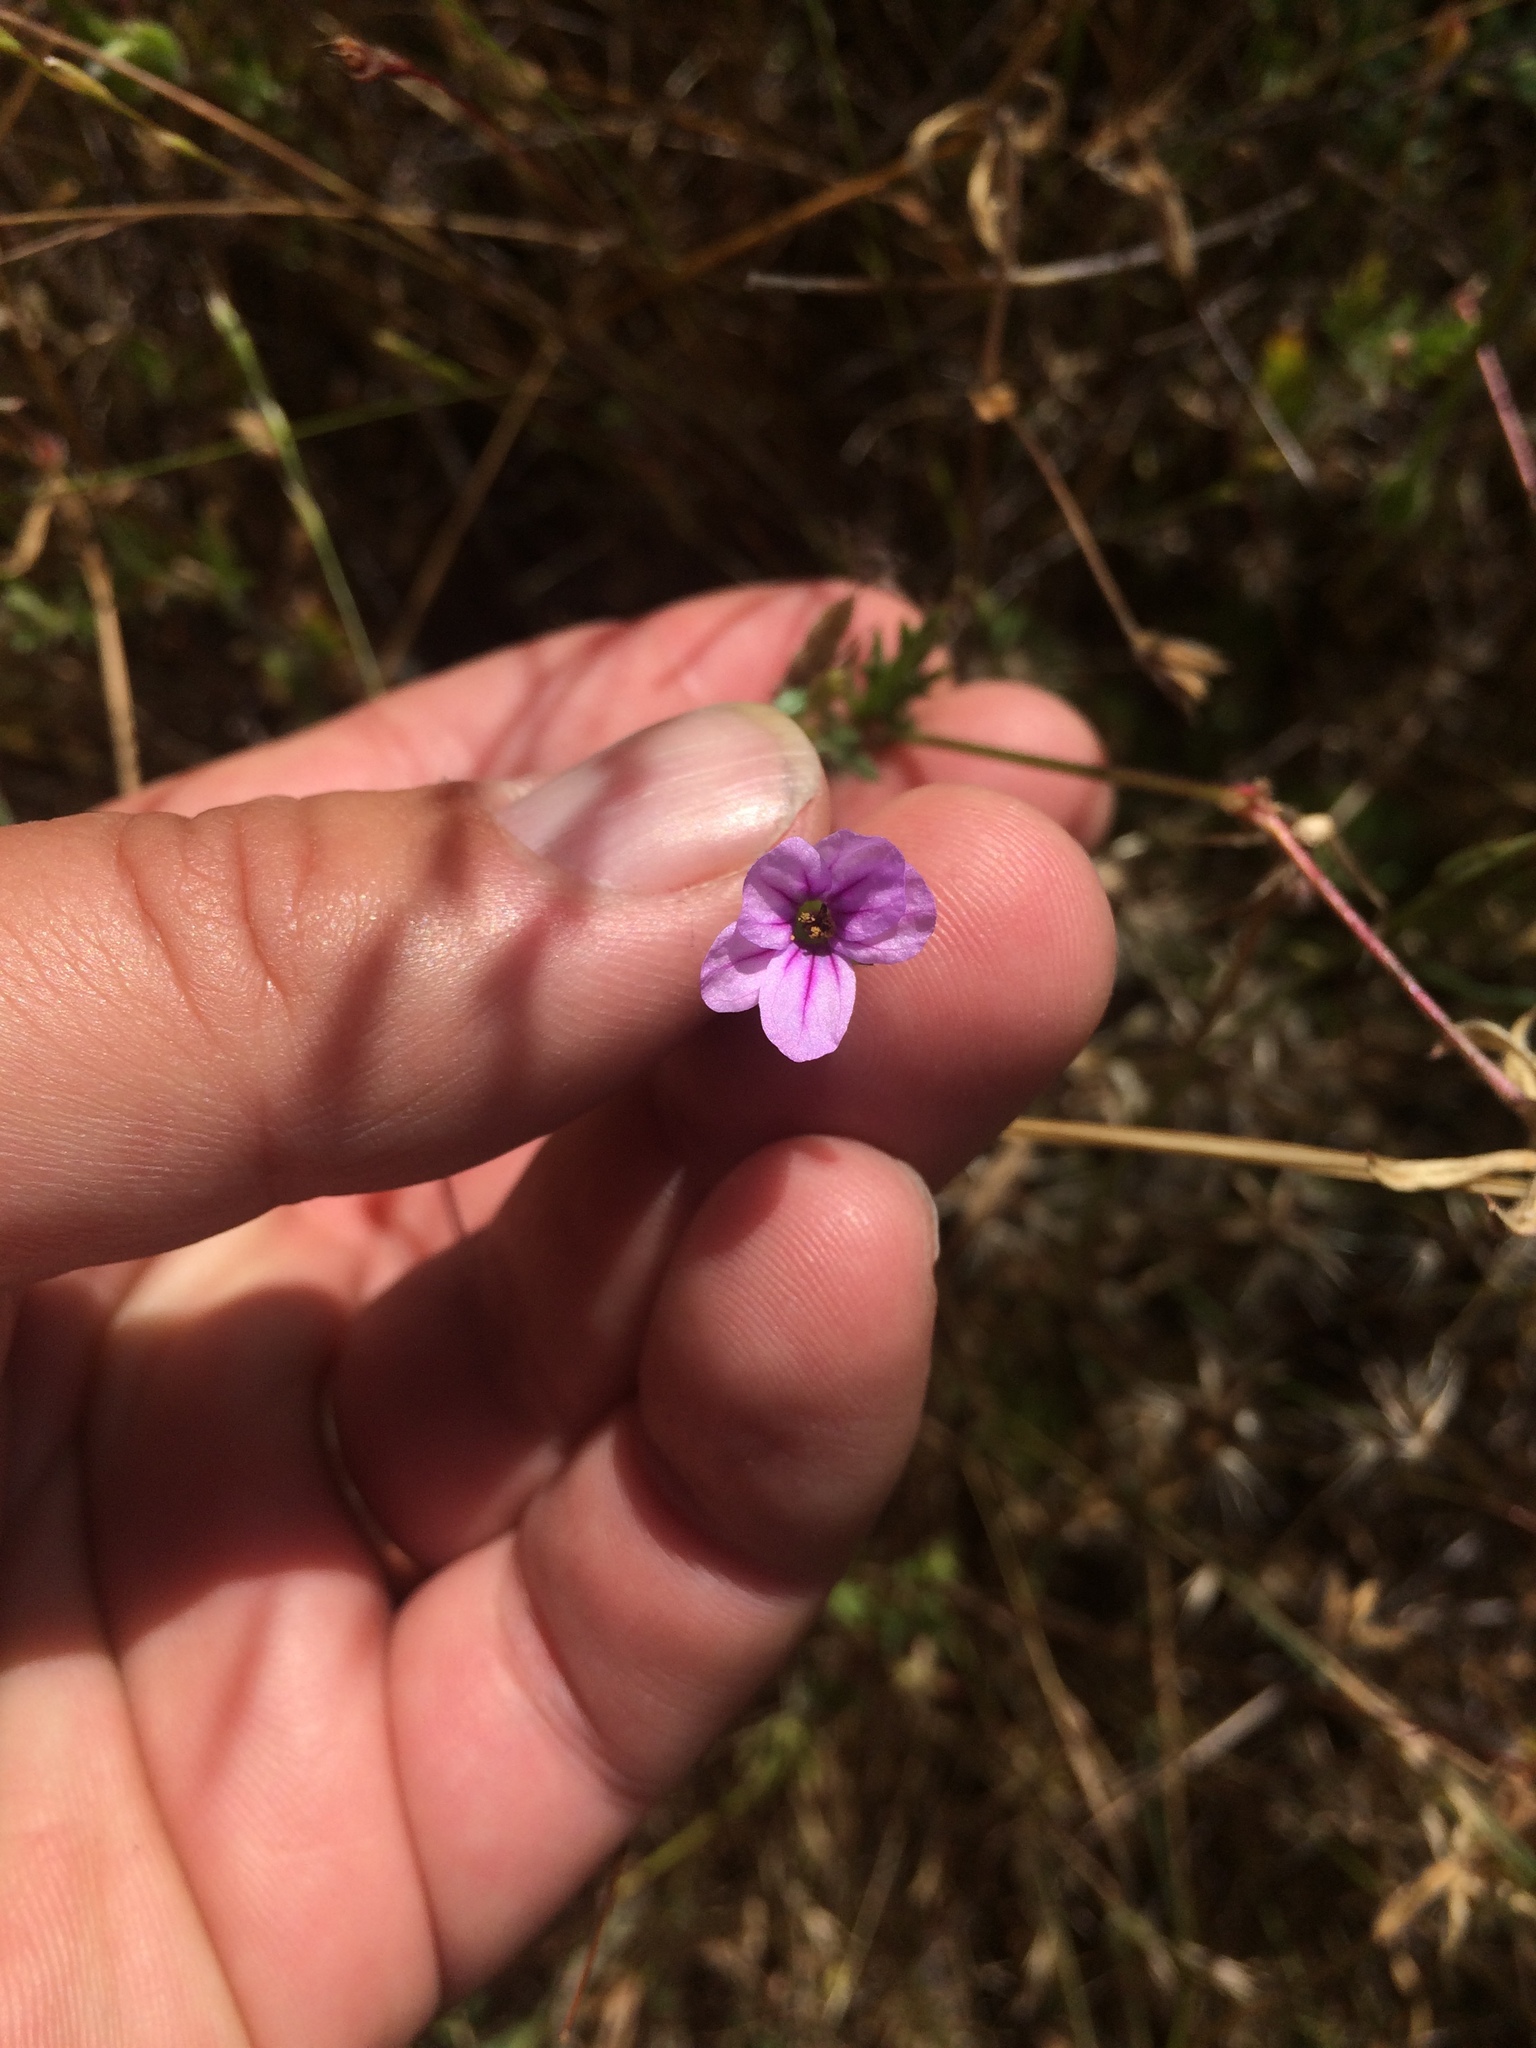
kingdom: Plantae
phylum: Tracheophyta
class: Magnoliopsida
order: Geraniales
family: Geraniaceae
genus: Erodium
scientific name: Erodium botrys
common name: Mediterranean stork's-bill
